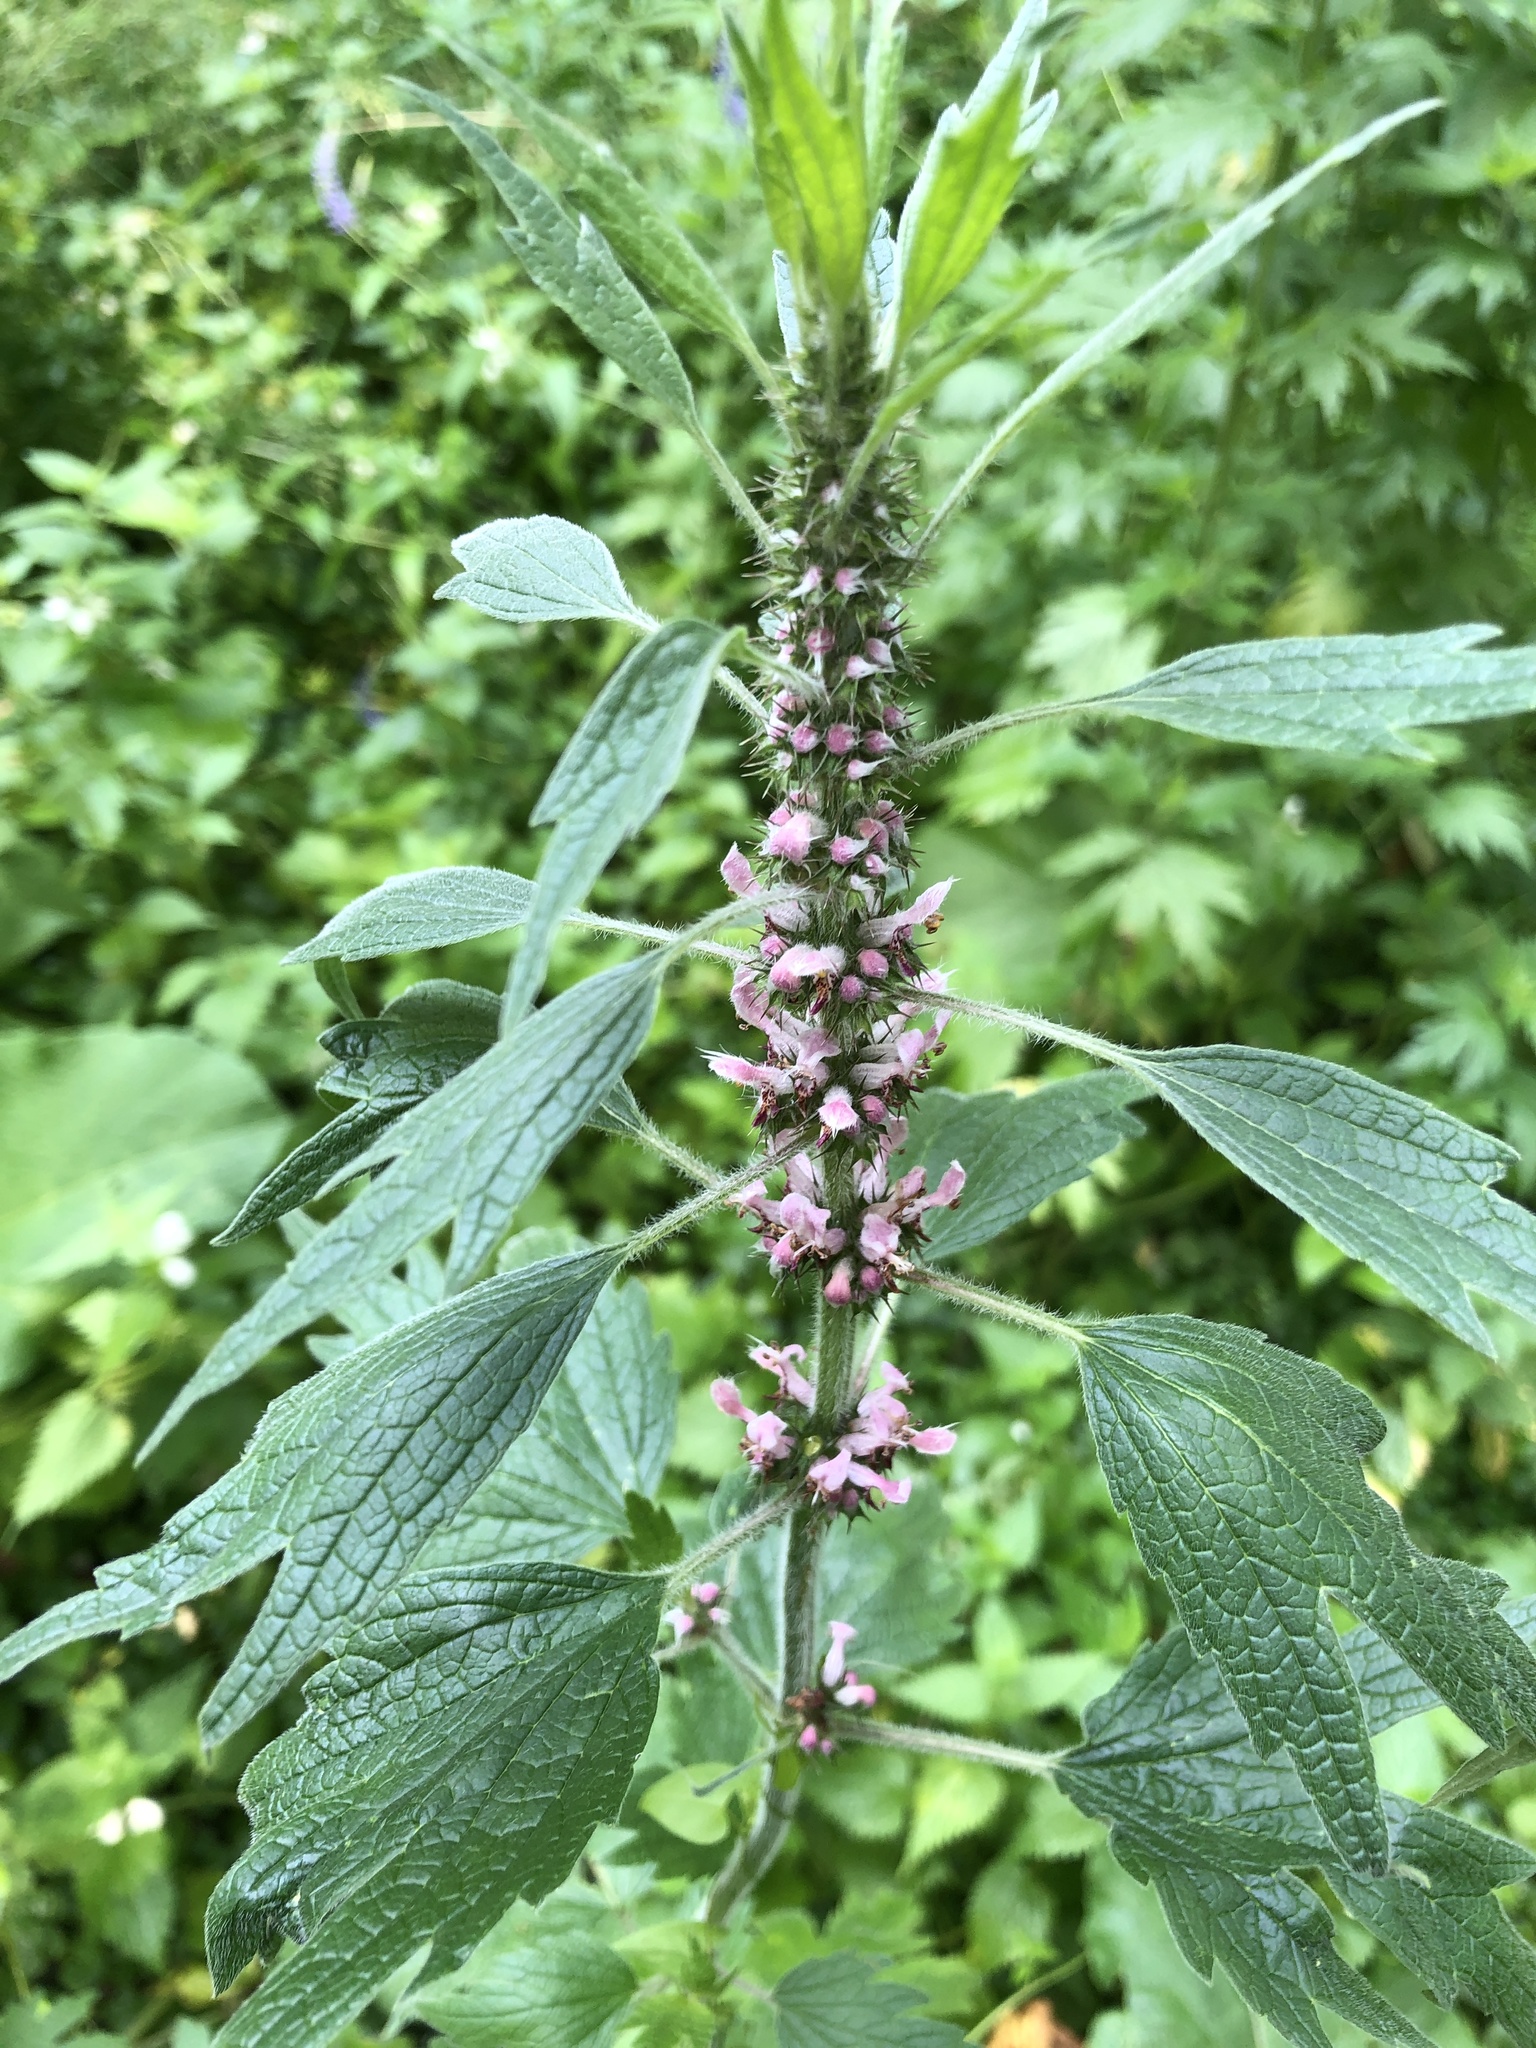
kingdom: Plantae
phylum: Tracheophyta
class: Magnoliopsida
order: Lamiales
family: Lamiaceae
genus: Leonurus
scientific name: Leonurus quinquelobatus
